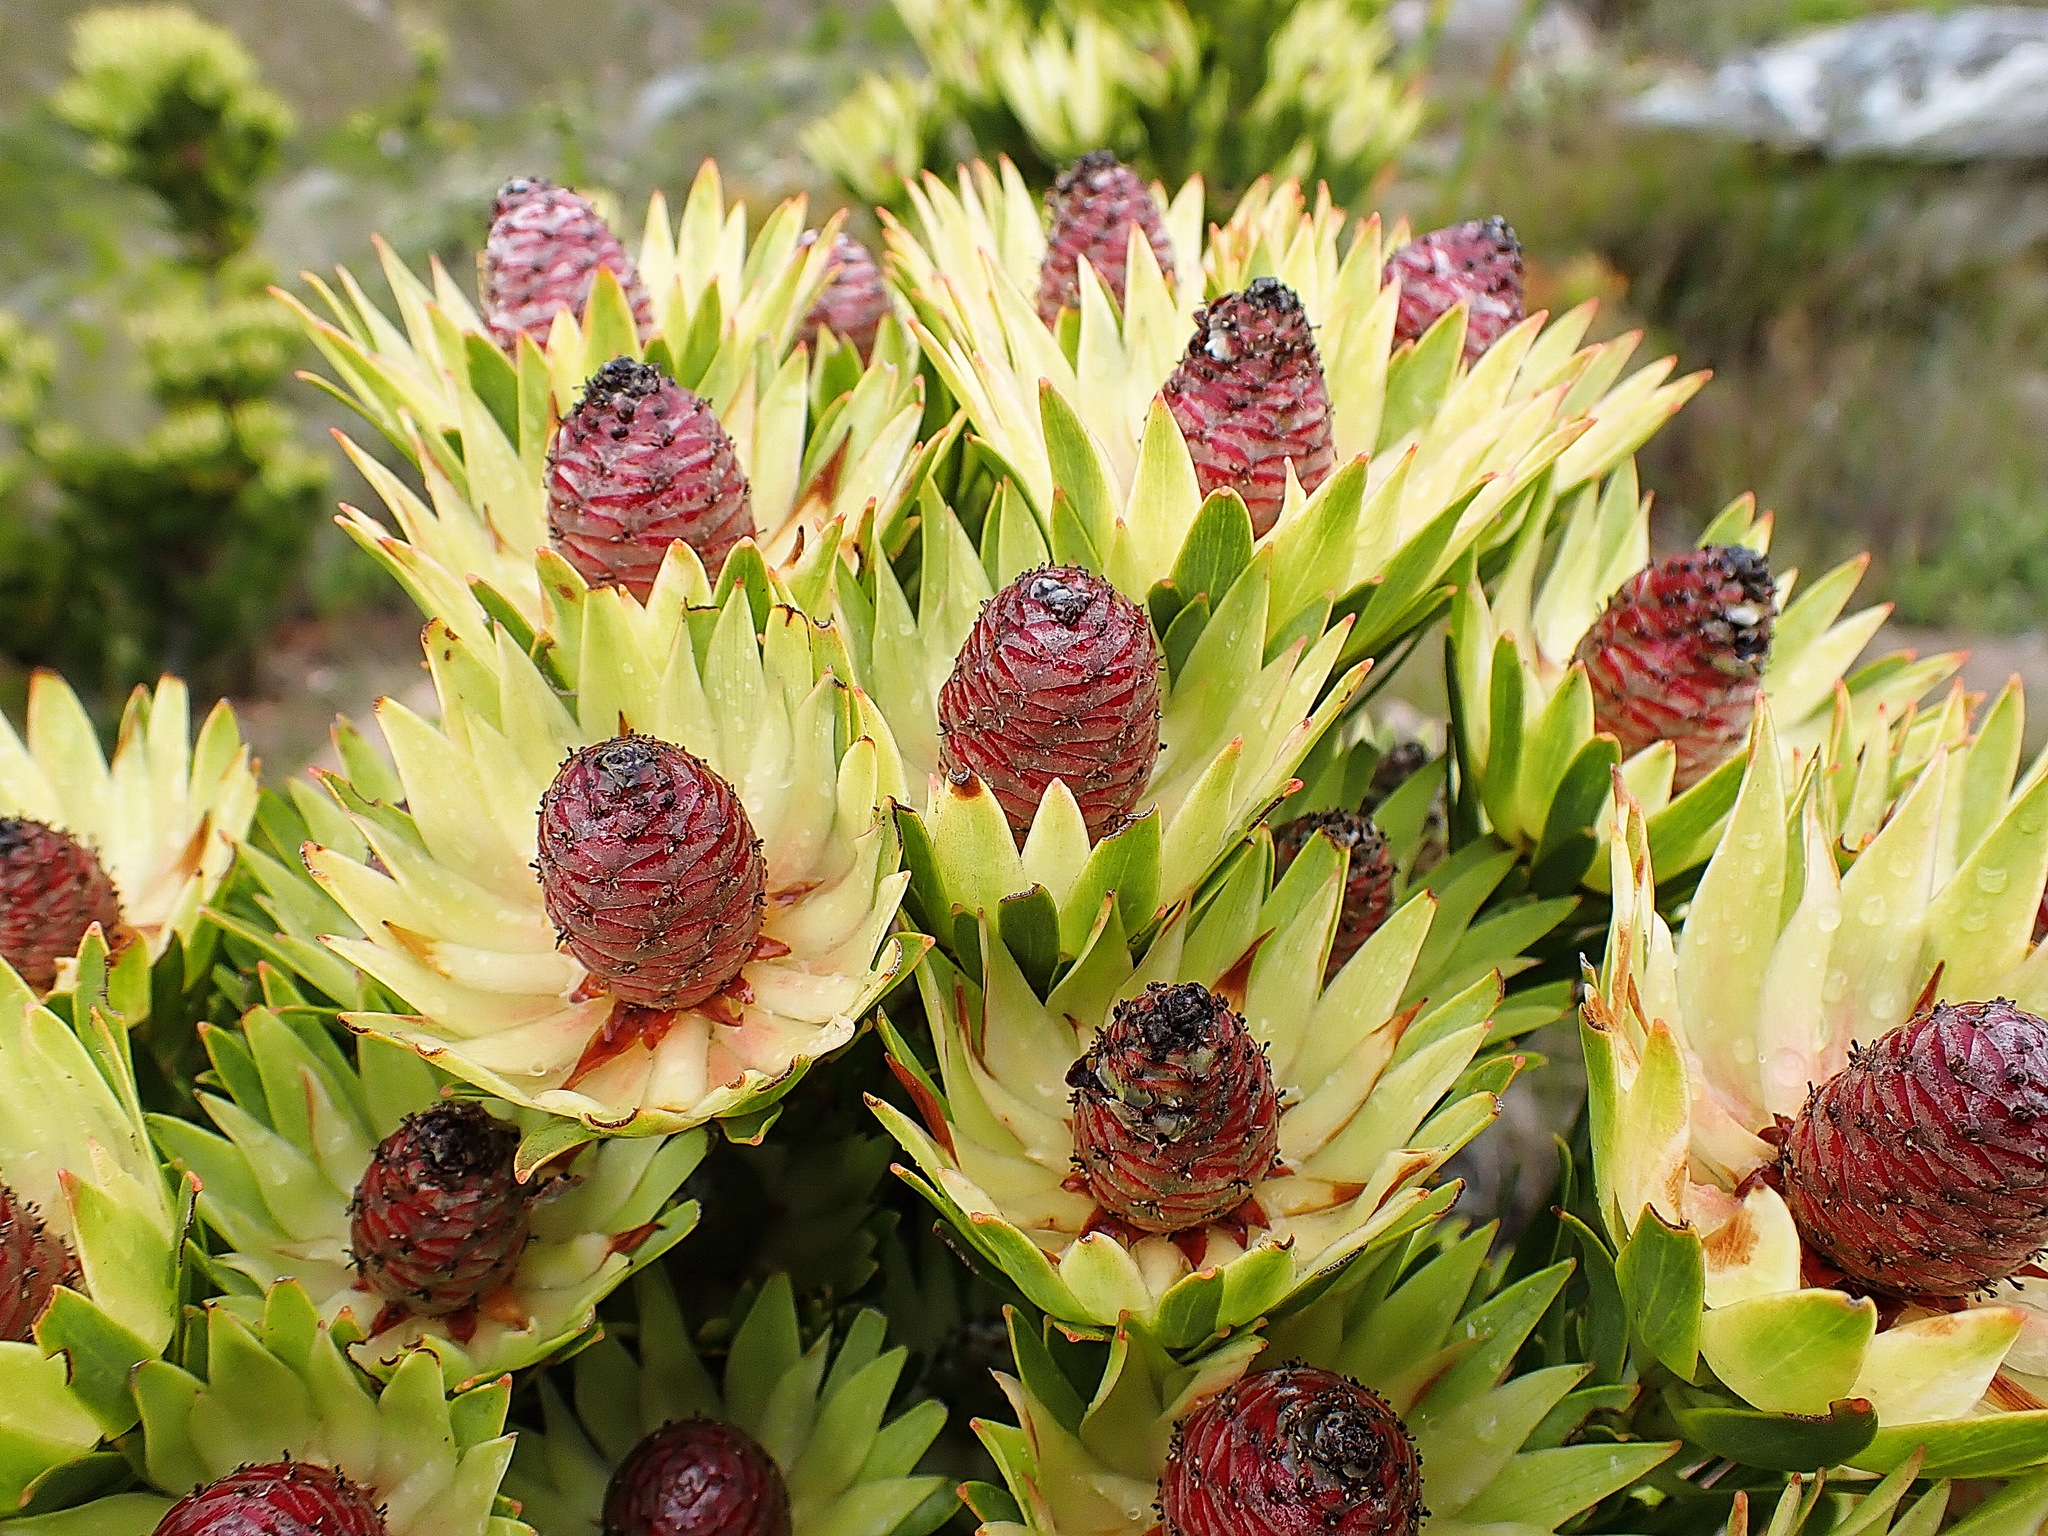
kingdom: Plantae
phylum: Tracheophyta
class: Magnoliopsida
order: Proteales
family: Proteaceae
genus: Leucadendron
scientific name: Leucadendron loeriense
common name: Loerie conebush
